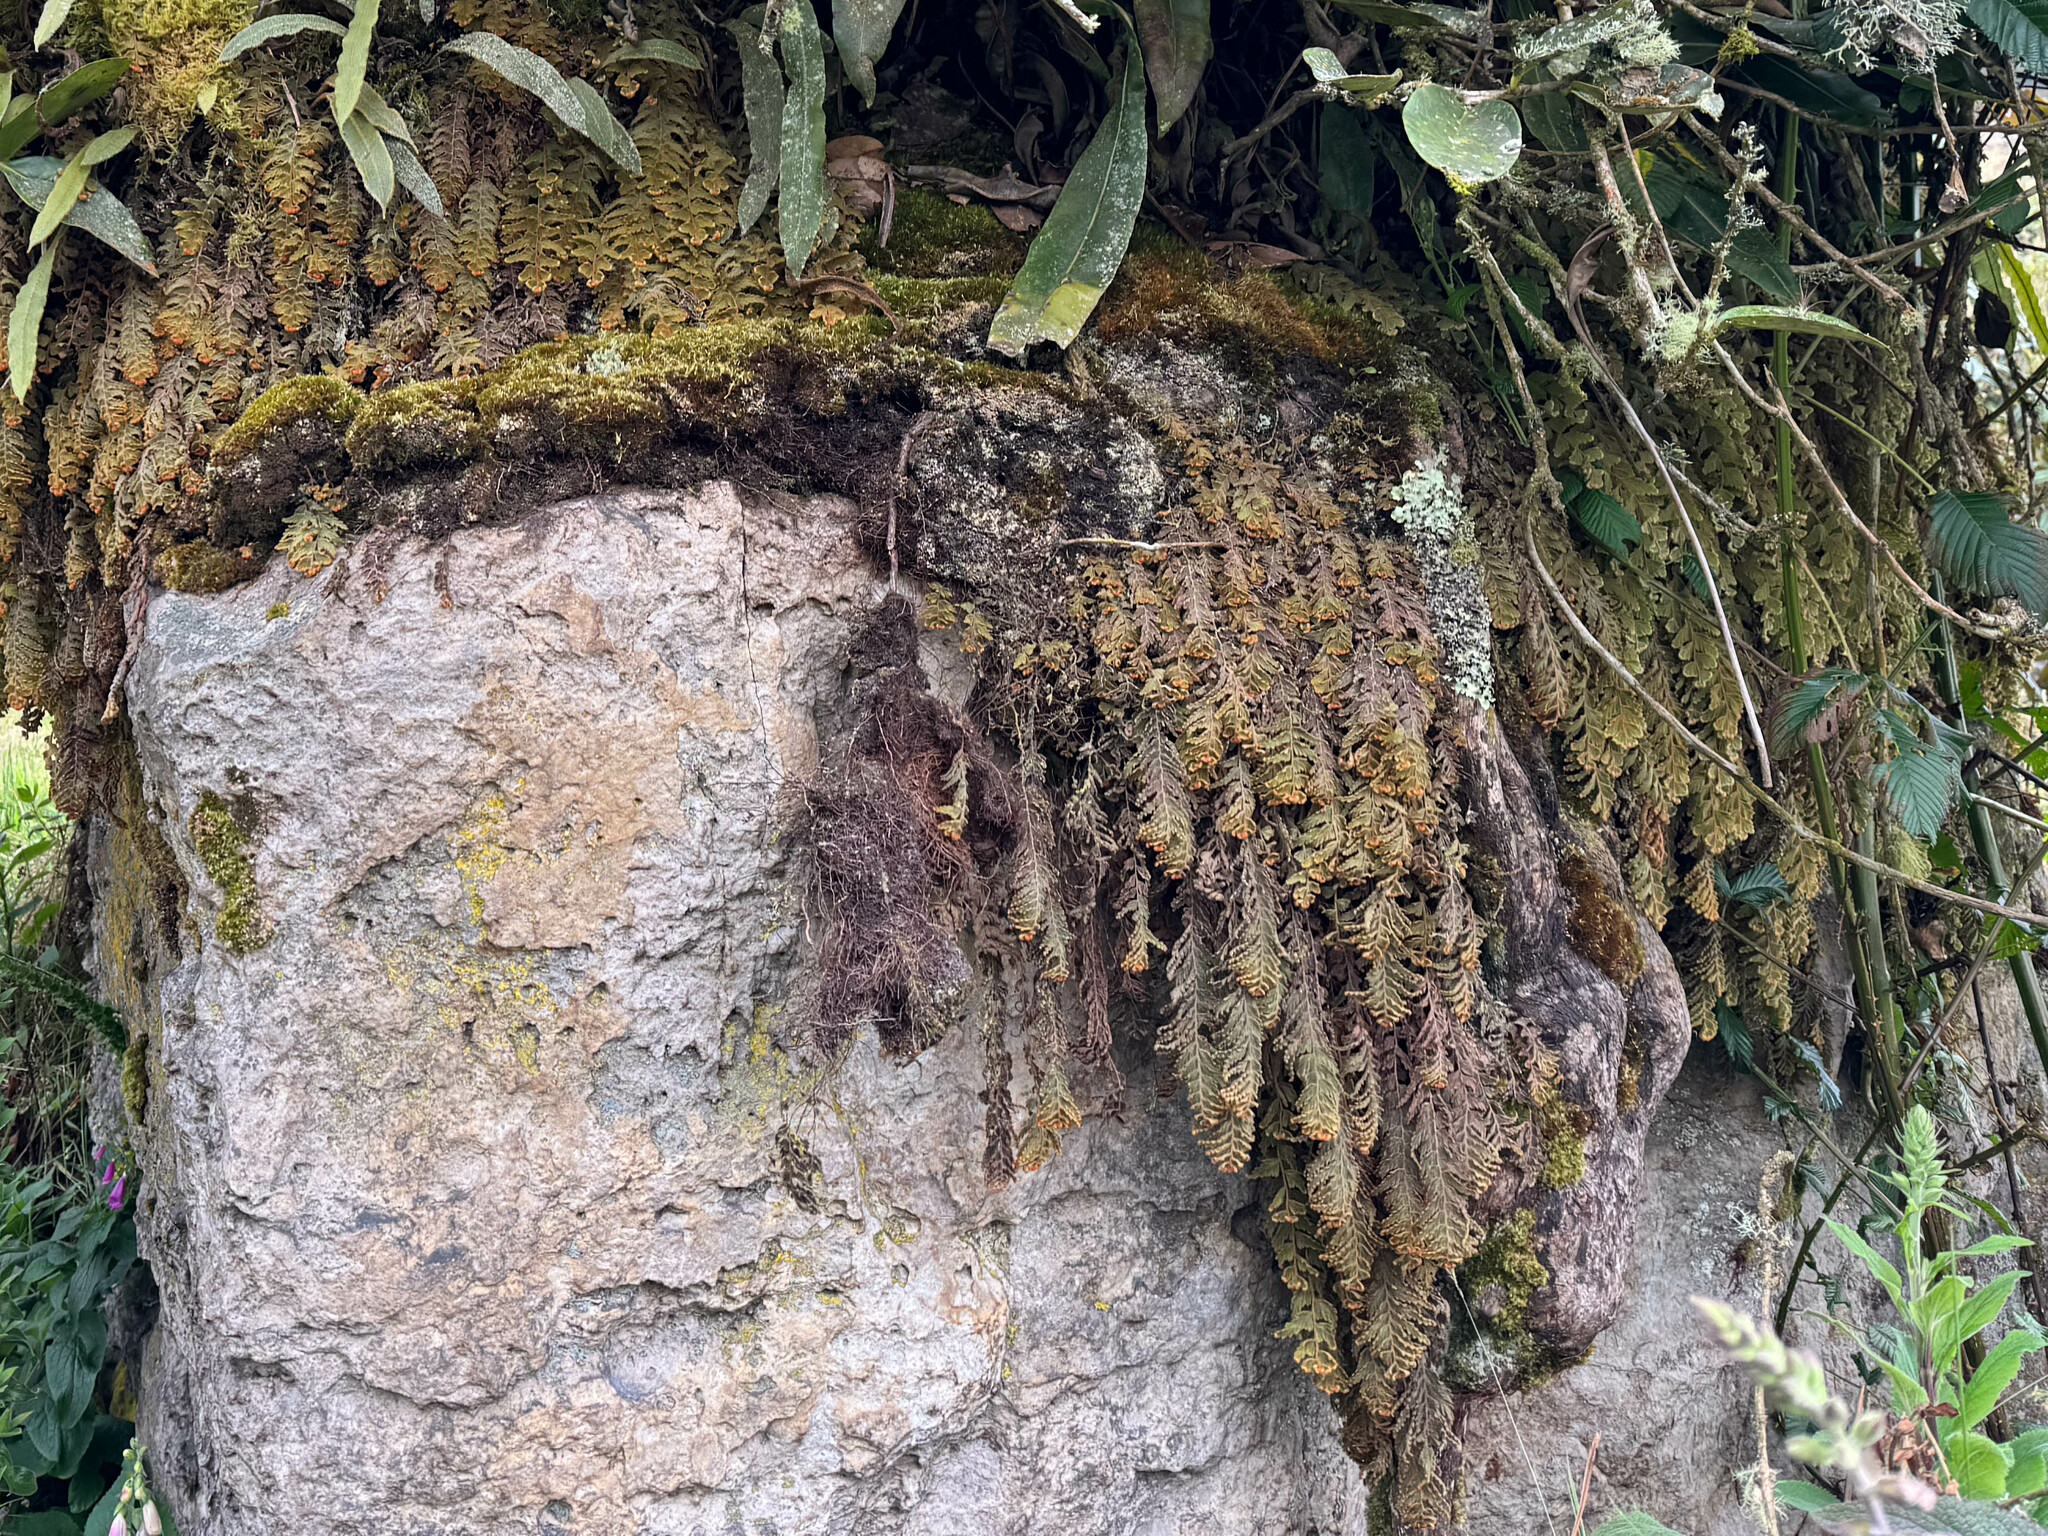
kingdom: Plantae
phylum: Tracheophyta
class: Polypodiopsida
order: Hymenophyllales
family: Hymenophyllaceae
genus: Hymenophyllum
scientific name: Hymenophyllum tomentosum
